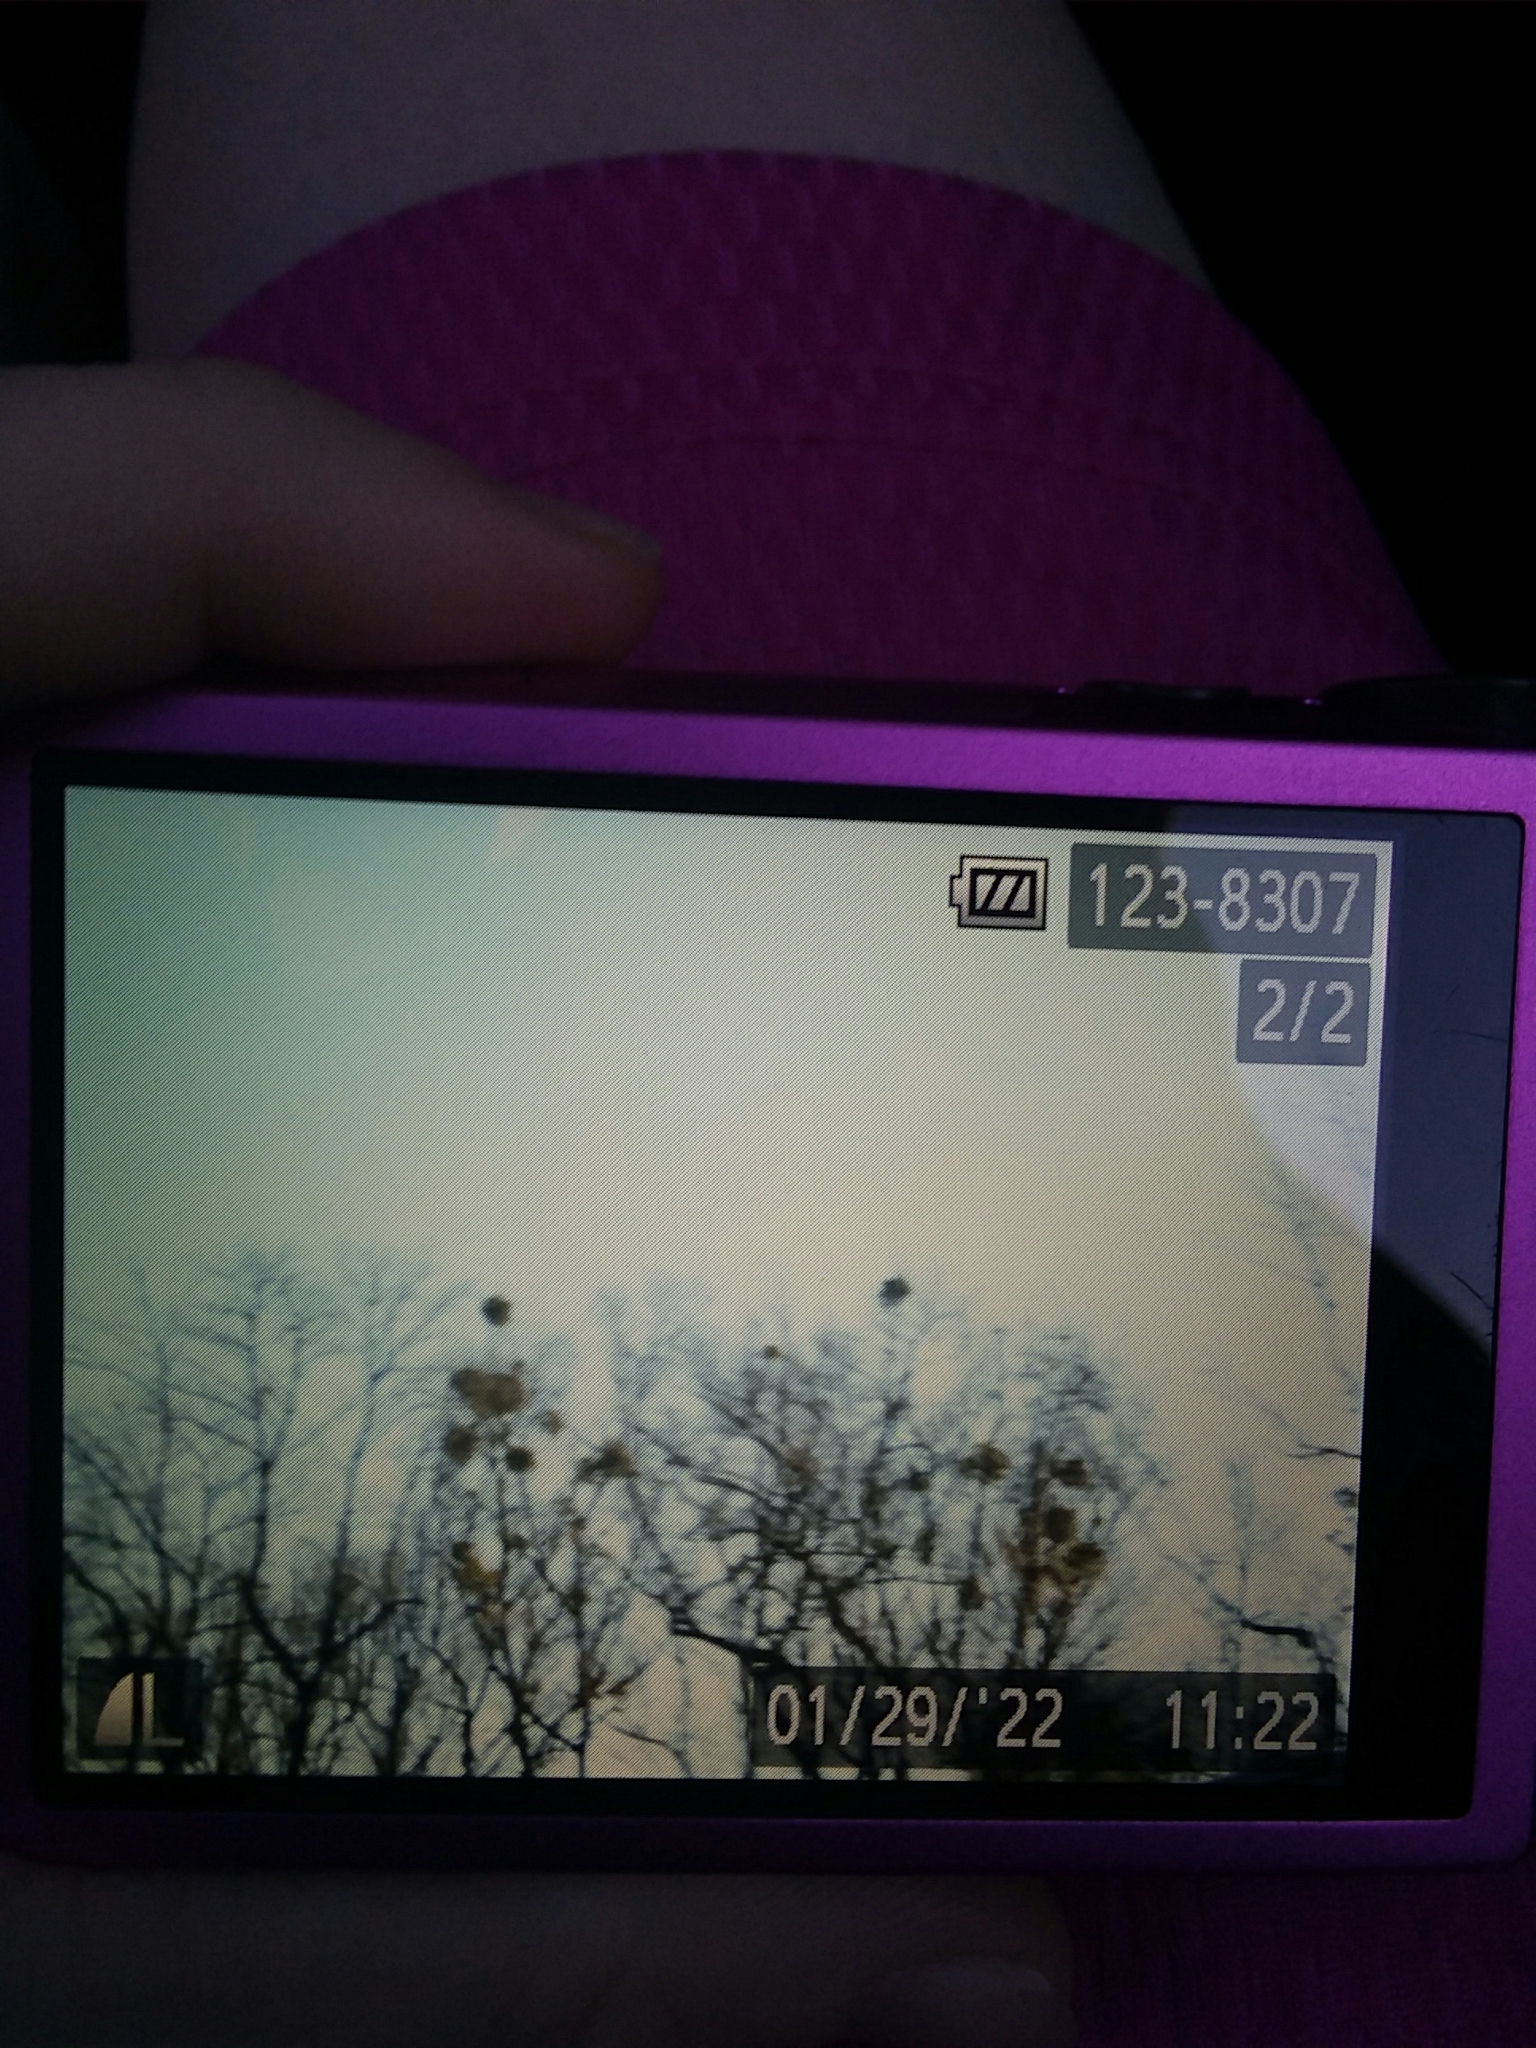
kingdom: Plantae
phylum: Tracheophyta
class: Magnoliopsida
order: Santalales
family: Viscaceae
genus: Phoradendron
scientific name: Phoradendron leucarpum
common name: Pacific mistletoe
